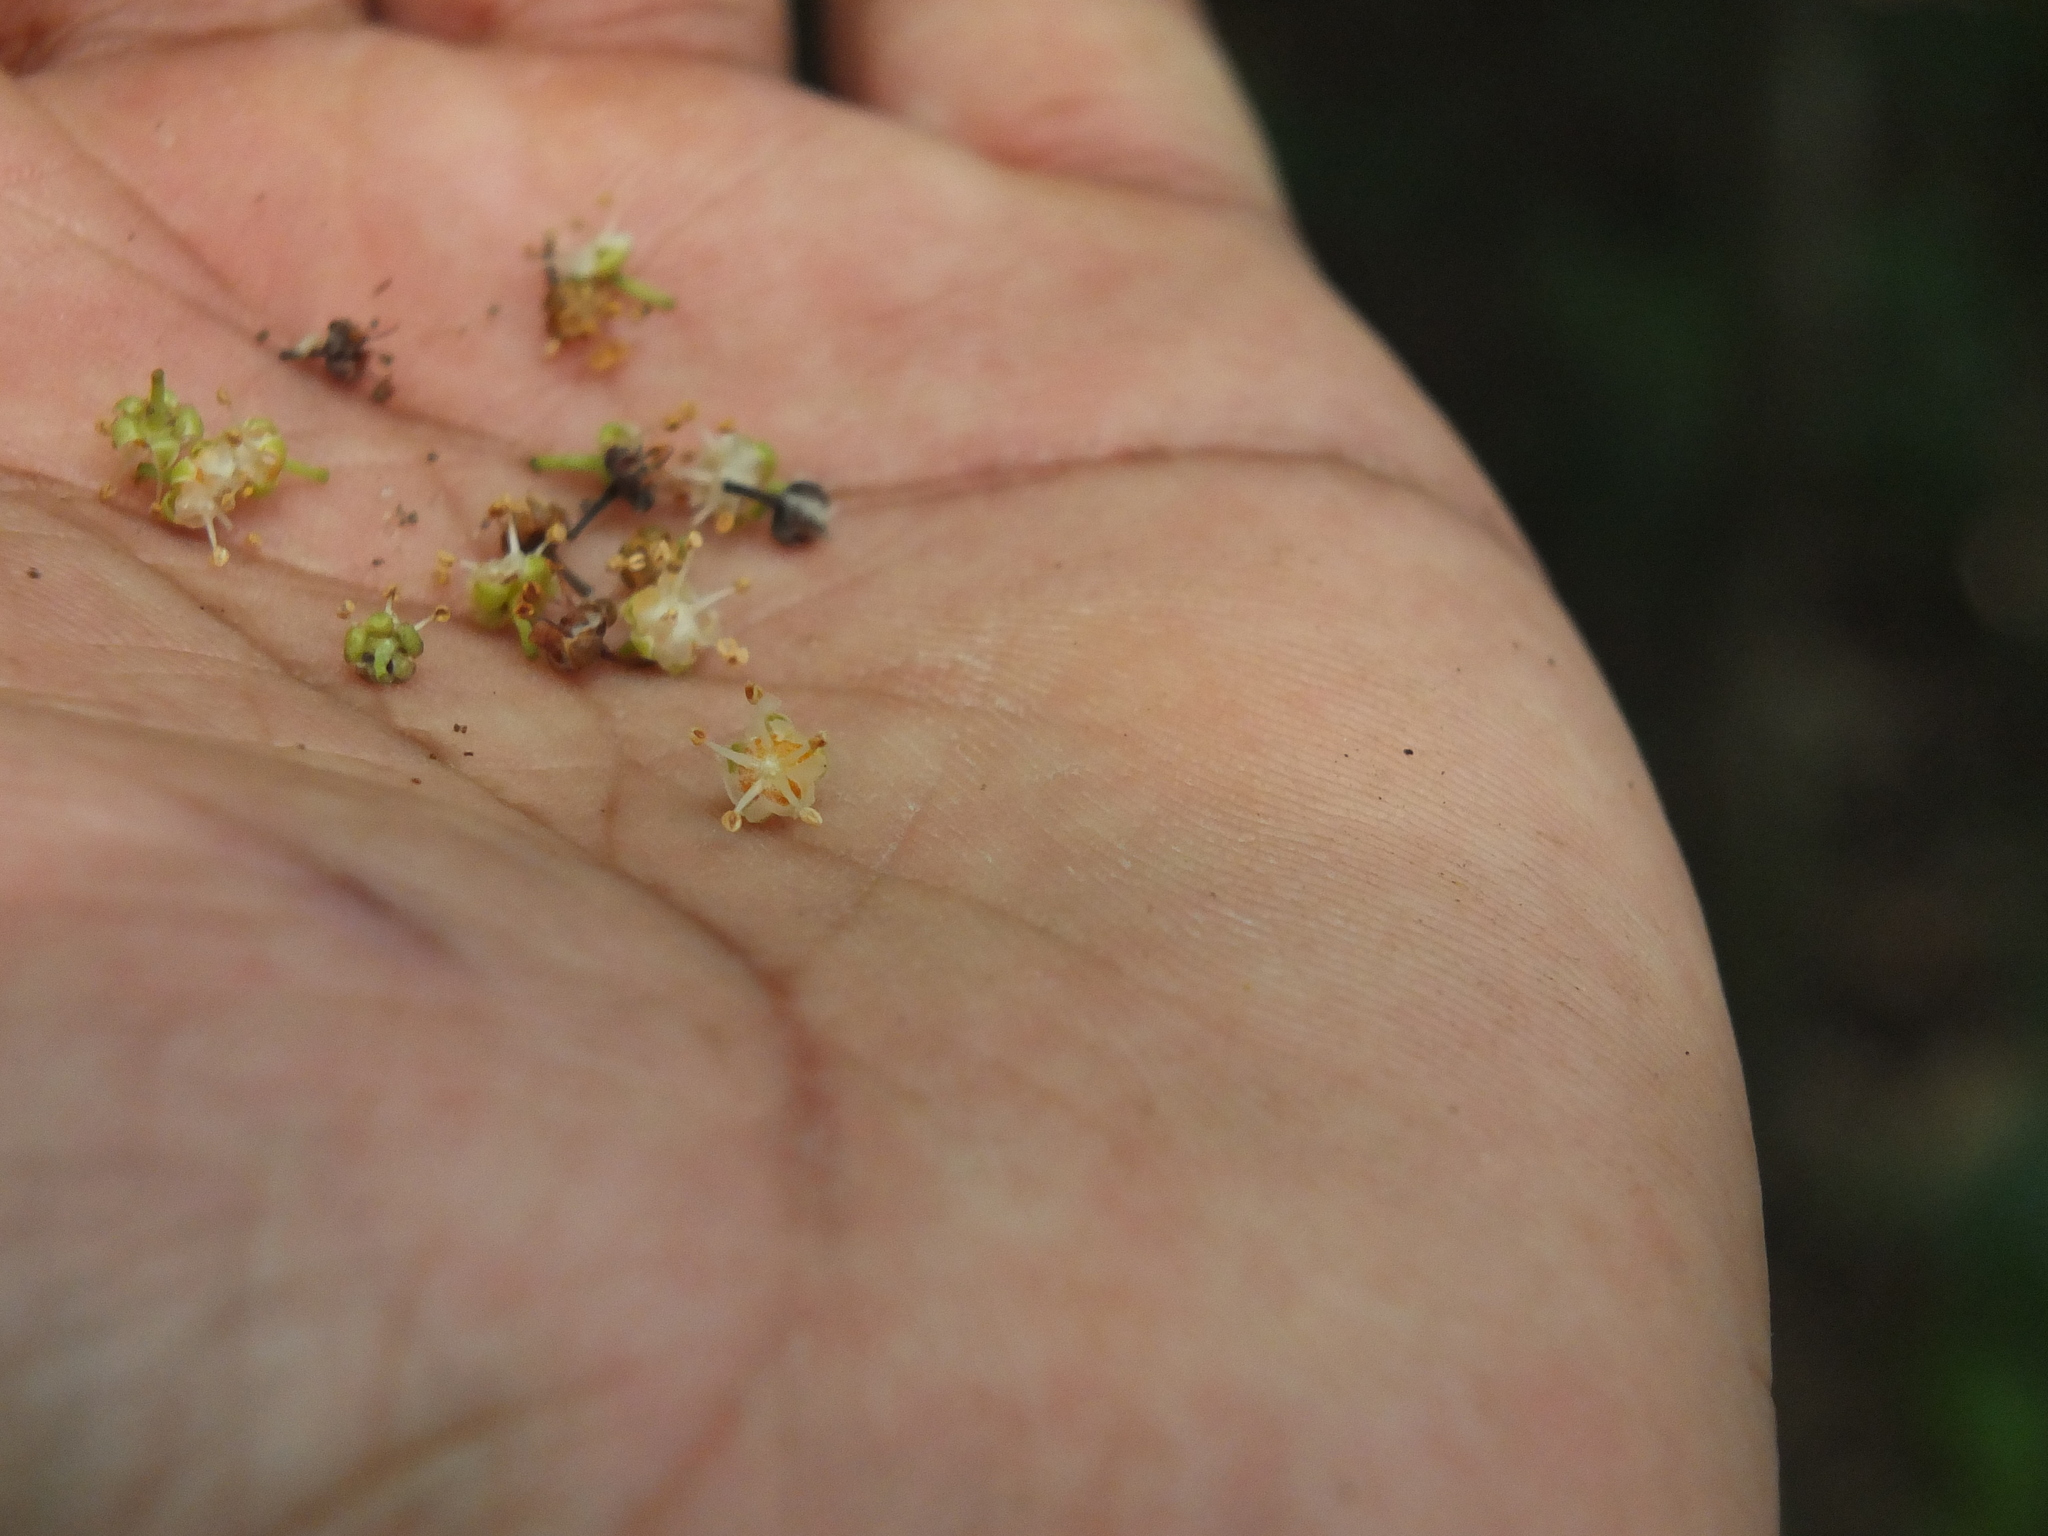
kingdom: Plantae
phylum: Tracheophyta
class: Magnoliopsida
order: Sapindales
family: Sapindaceae
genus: Filicium
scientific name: Filicium decipiens
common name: Ferntree
